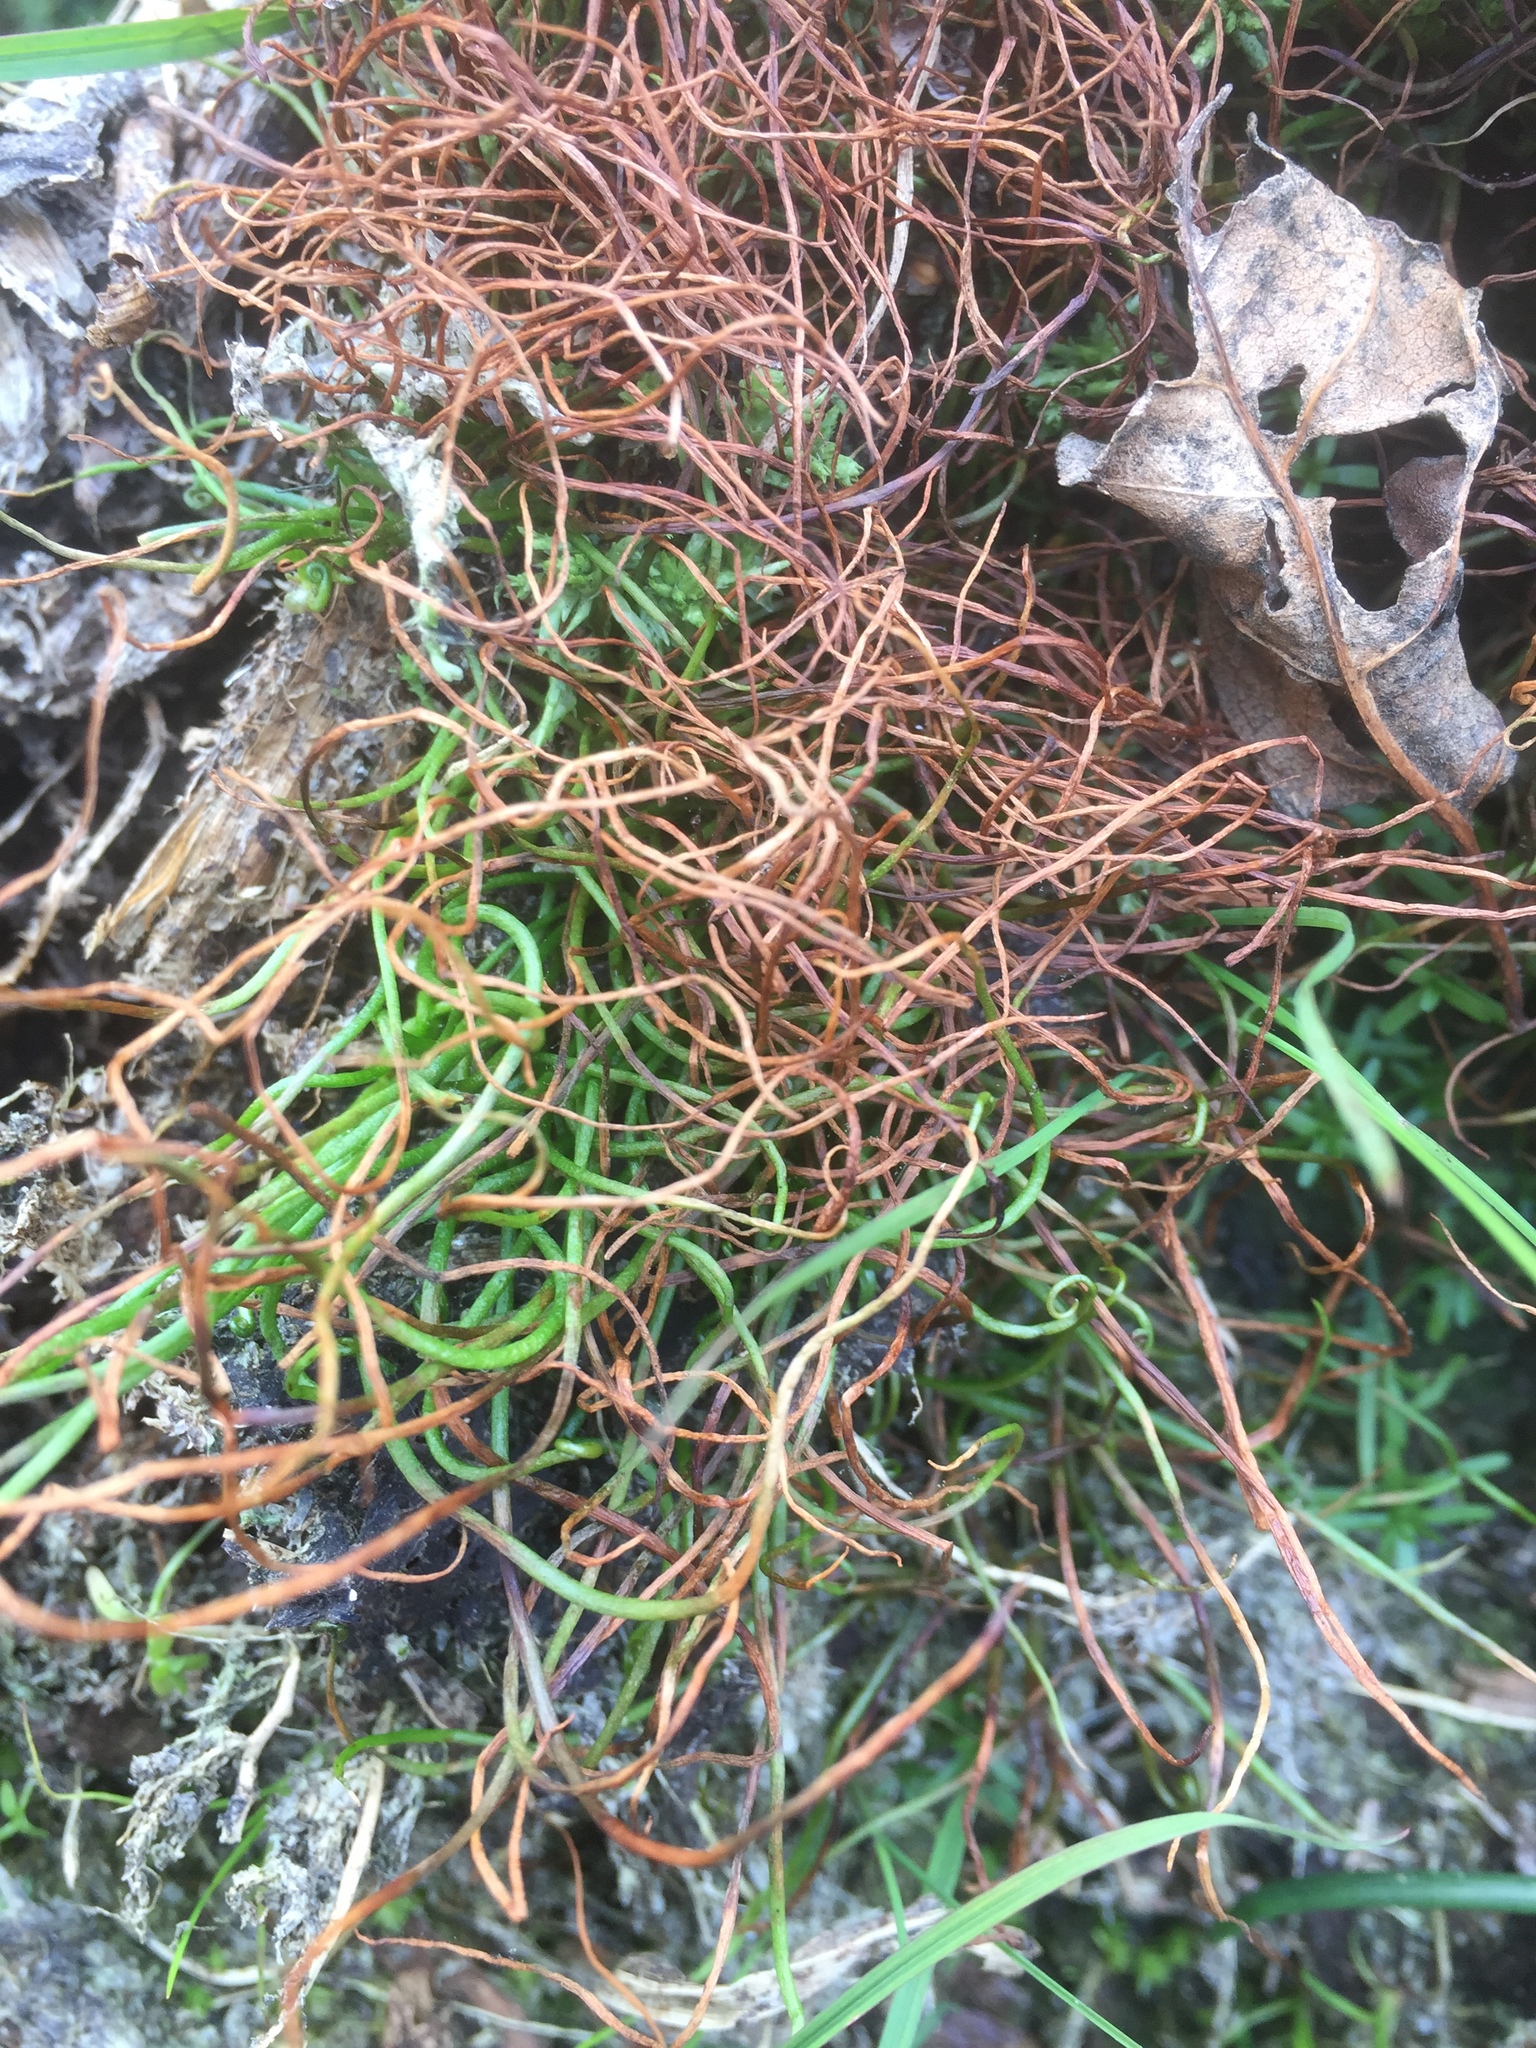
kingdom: Plantae
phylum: Tracheophyta
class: Polypodiopsida
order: Salviniales
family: Marsileaceae
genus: Pilularia
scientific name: Pilularia globulifera
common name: Pillwort
